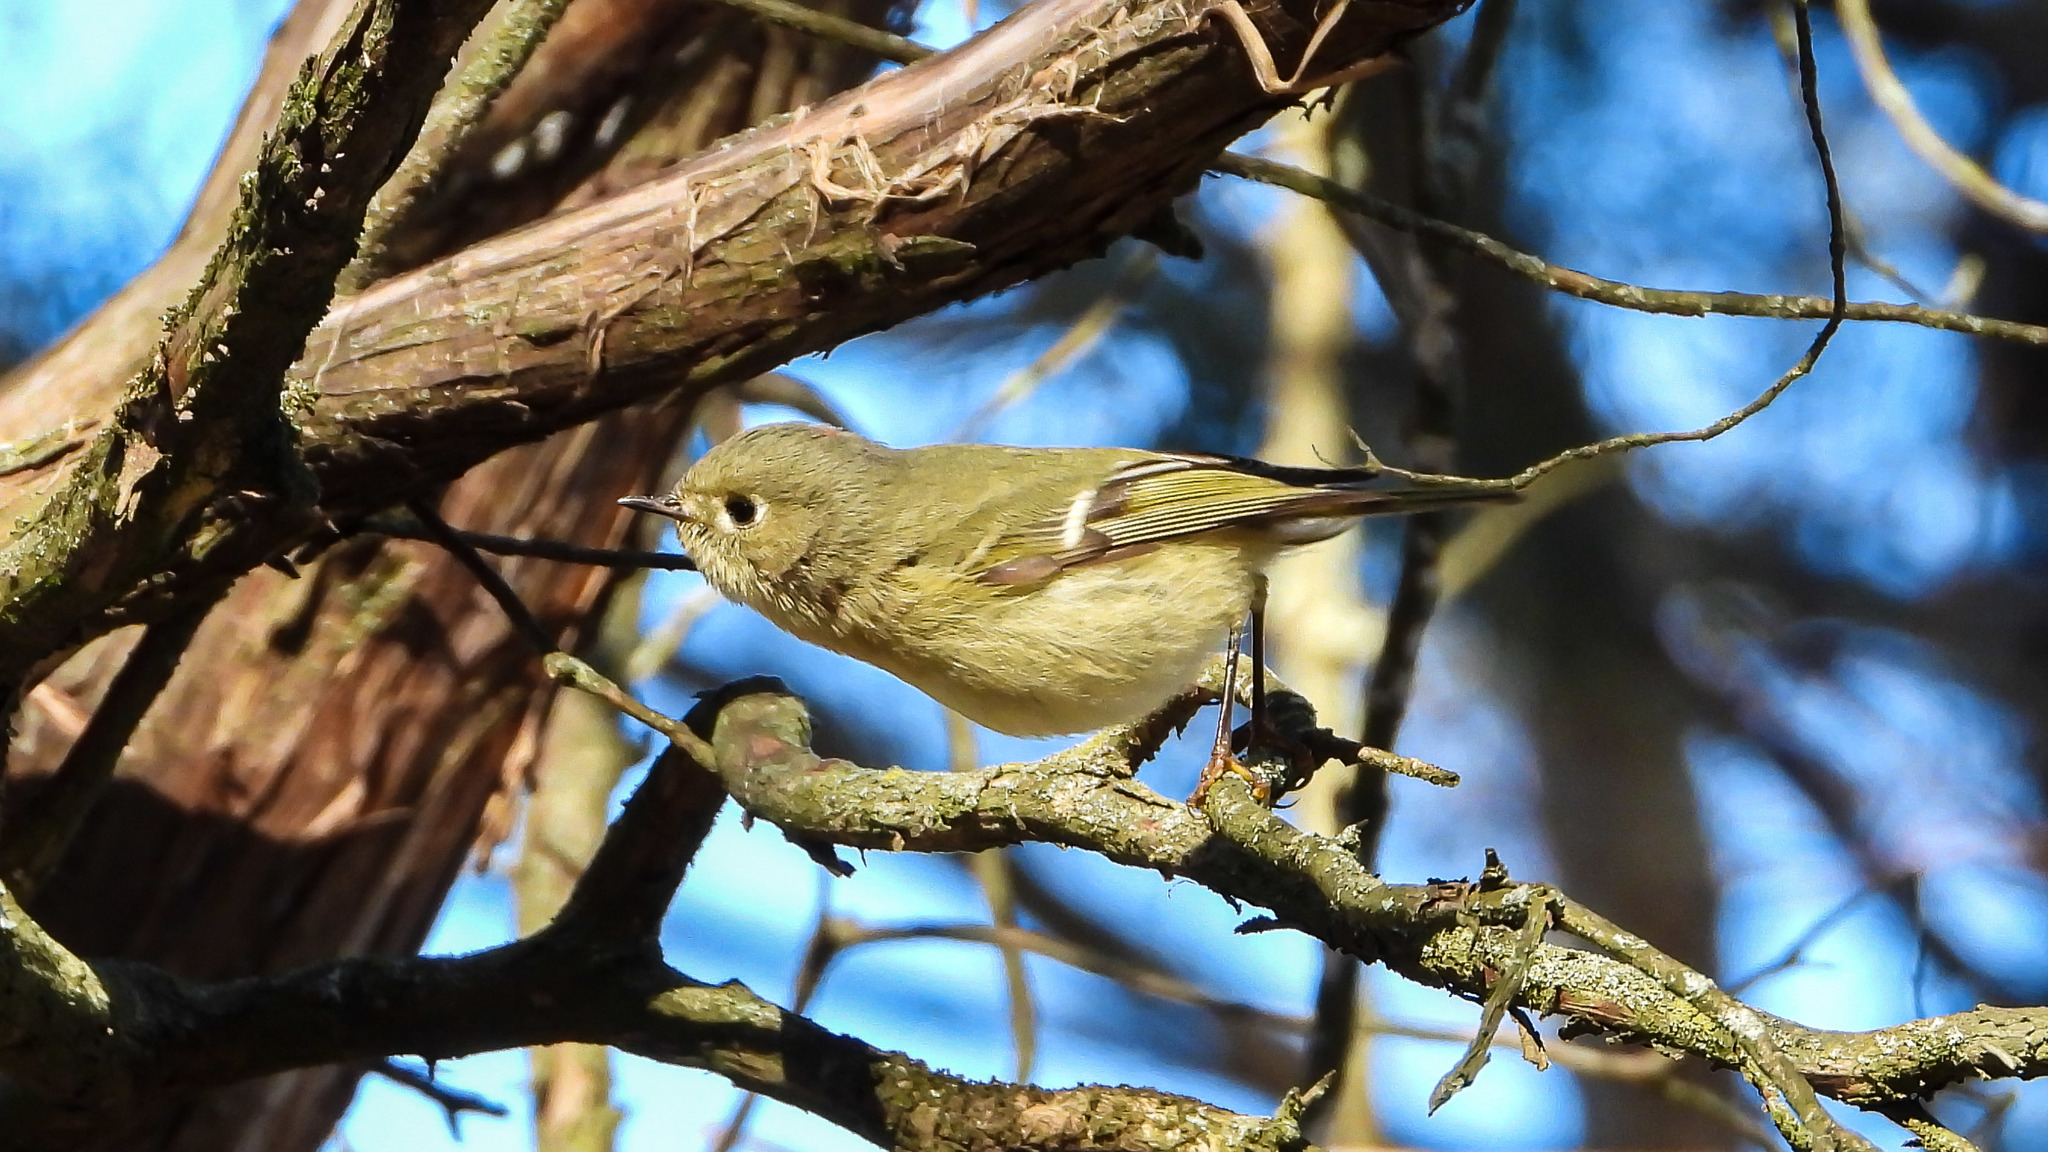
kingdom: Animalia
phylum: Chordata
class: Aves
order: Passeriformes
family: Regulidae
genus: Regulus
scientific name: Regulus calendula
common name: Ruby-crowned kinglet
